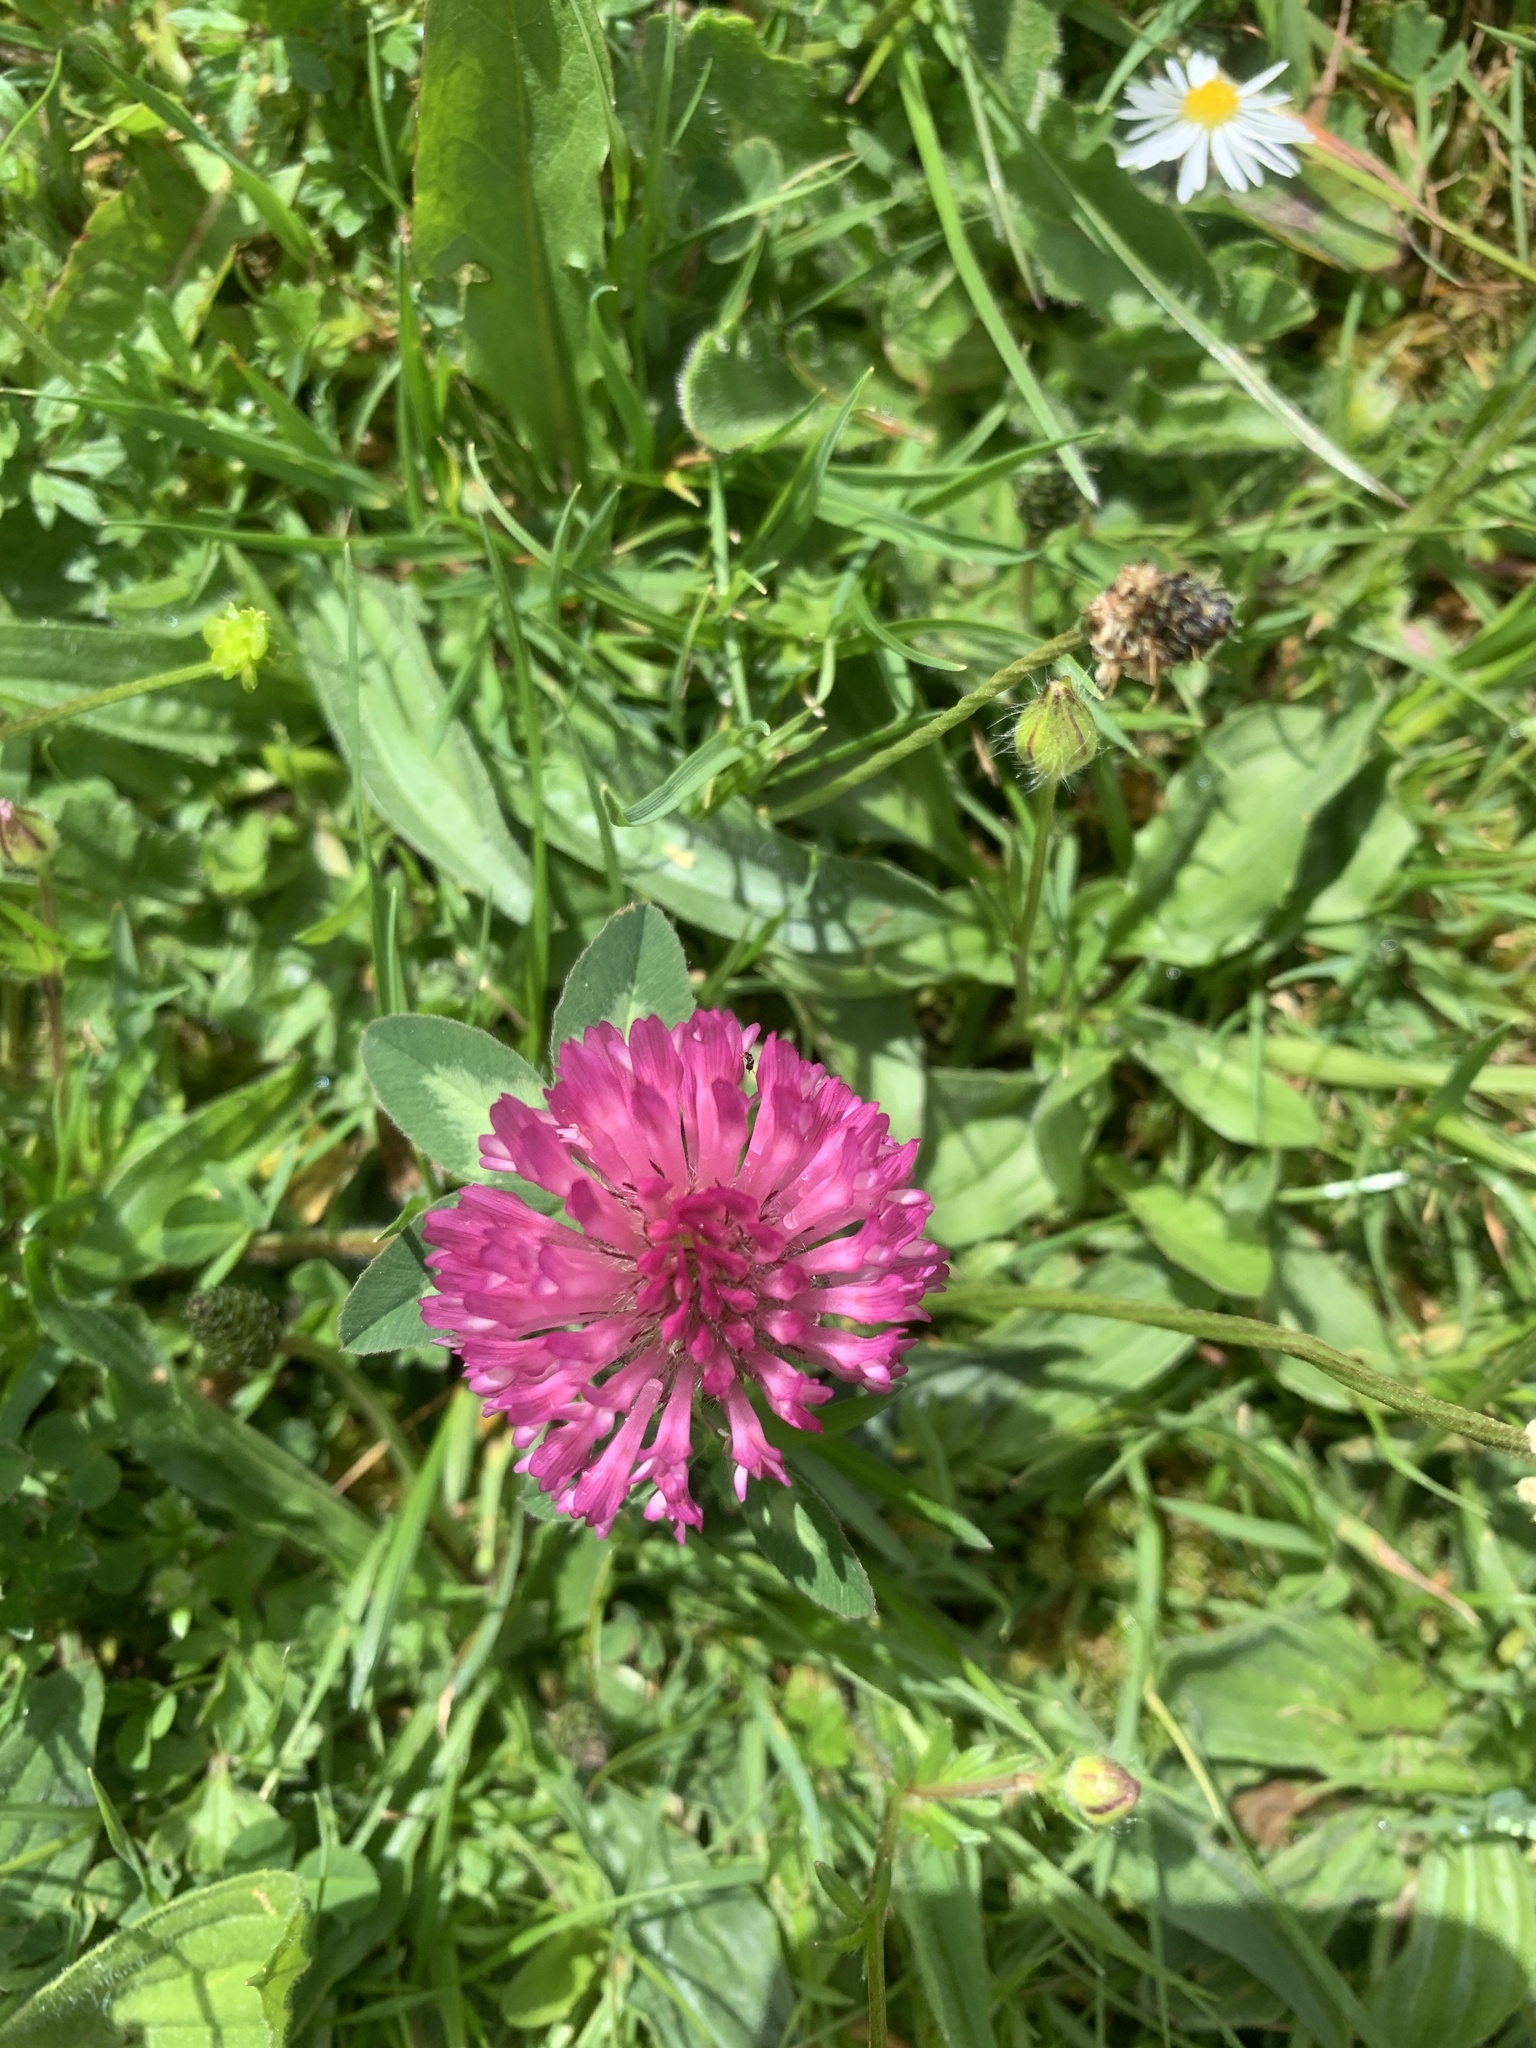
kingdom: Plantae
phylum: Tracheophyta
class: Magnoliopsida
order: Fabales
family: Fabaceae
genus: Trifolium
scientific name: Trifolium pratense
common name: Red clover
